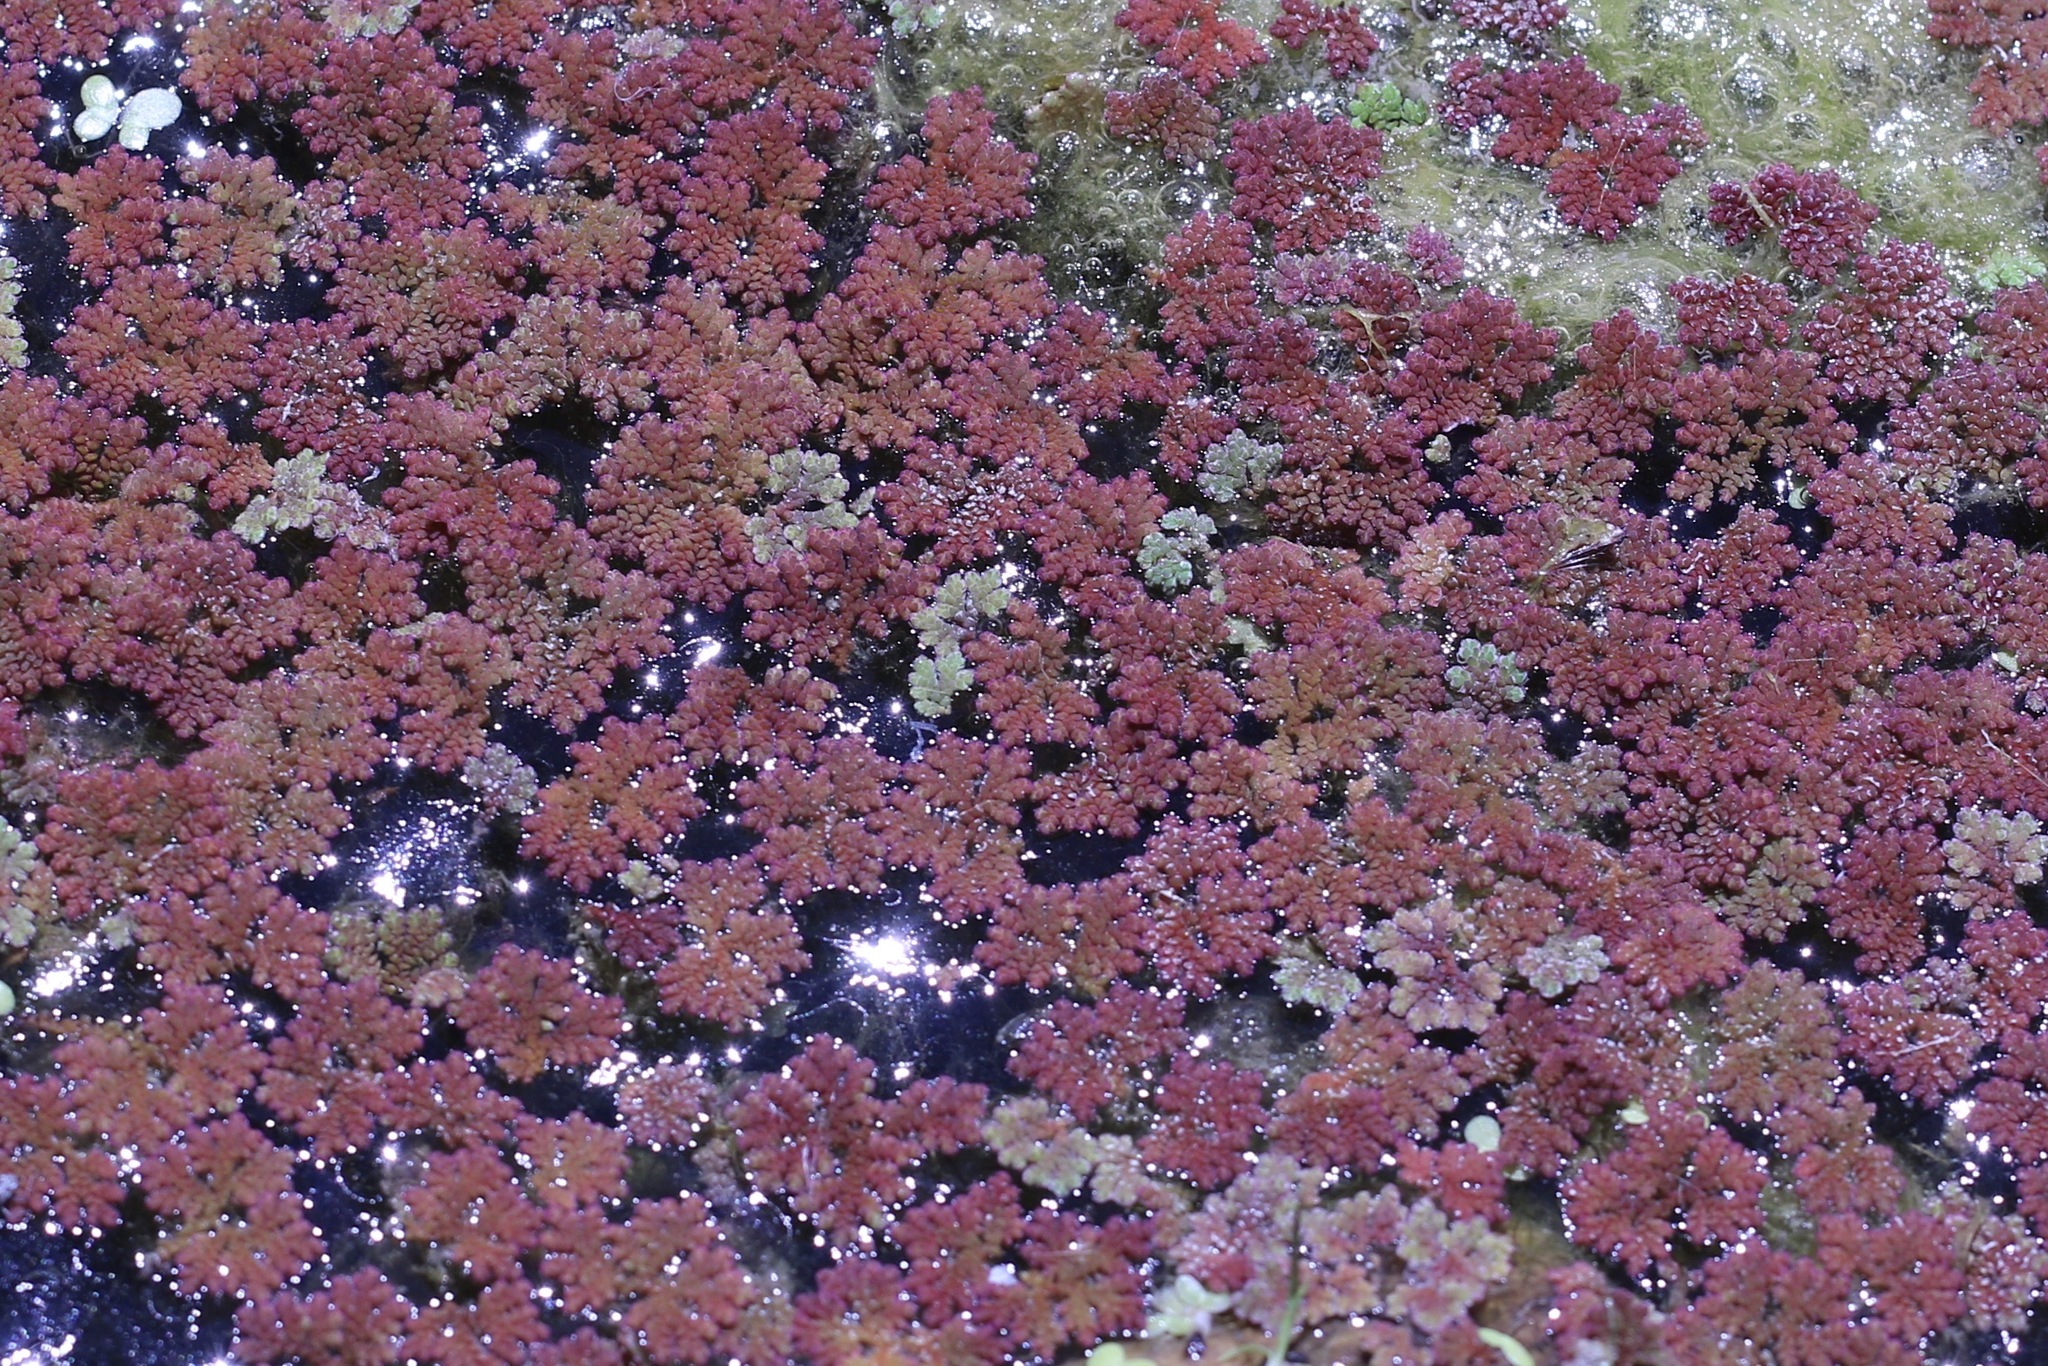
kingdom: Plantae
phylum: Tracheophyta
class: Polypodiopsida
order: Salviniales
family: Salviniaceae
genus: Azolla
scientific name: Azolla filiculoides
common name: Water fern
